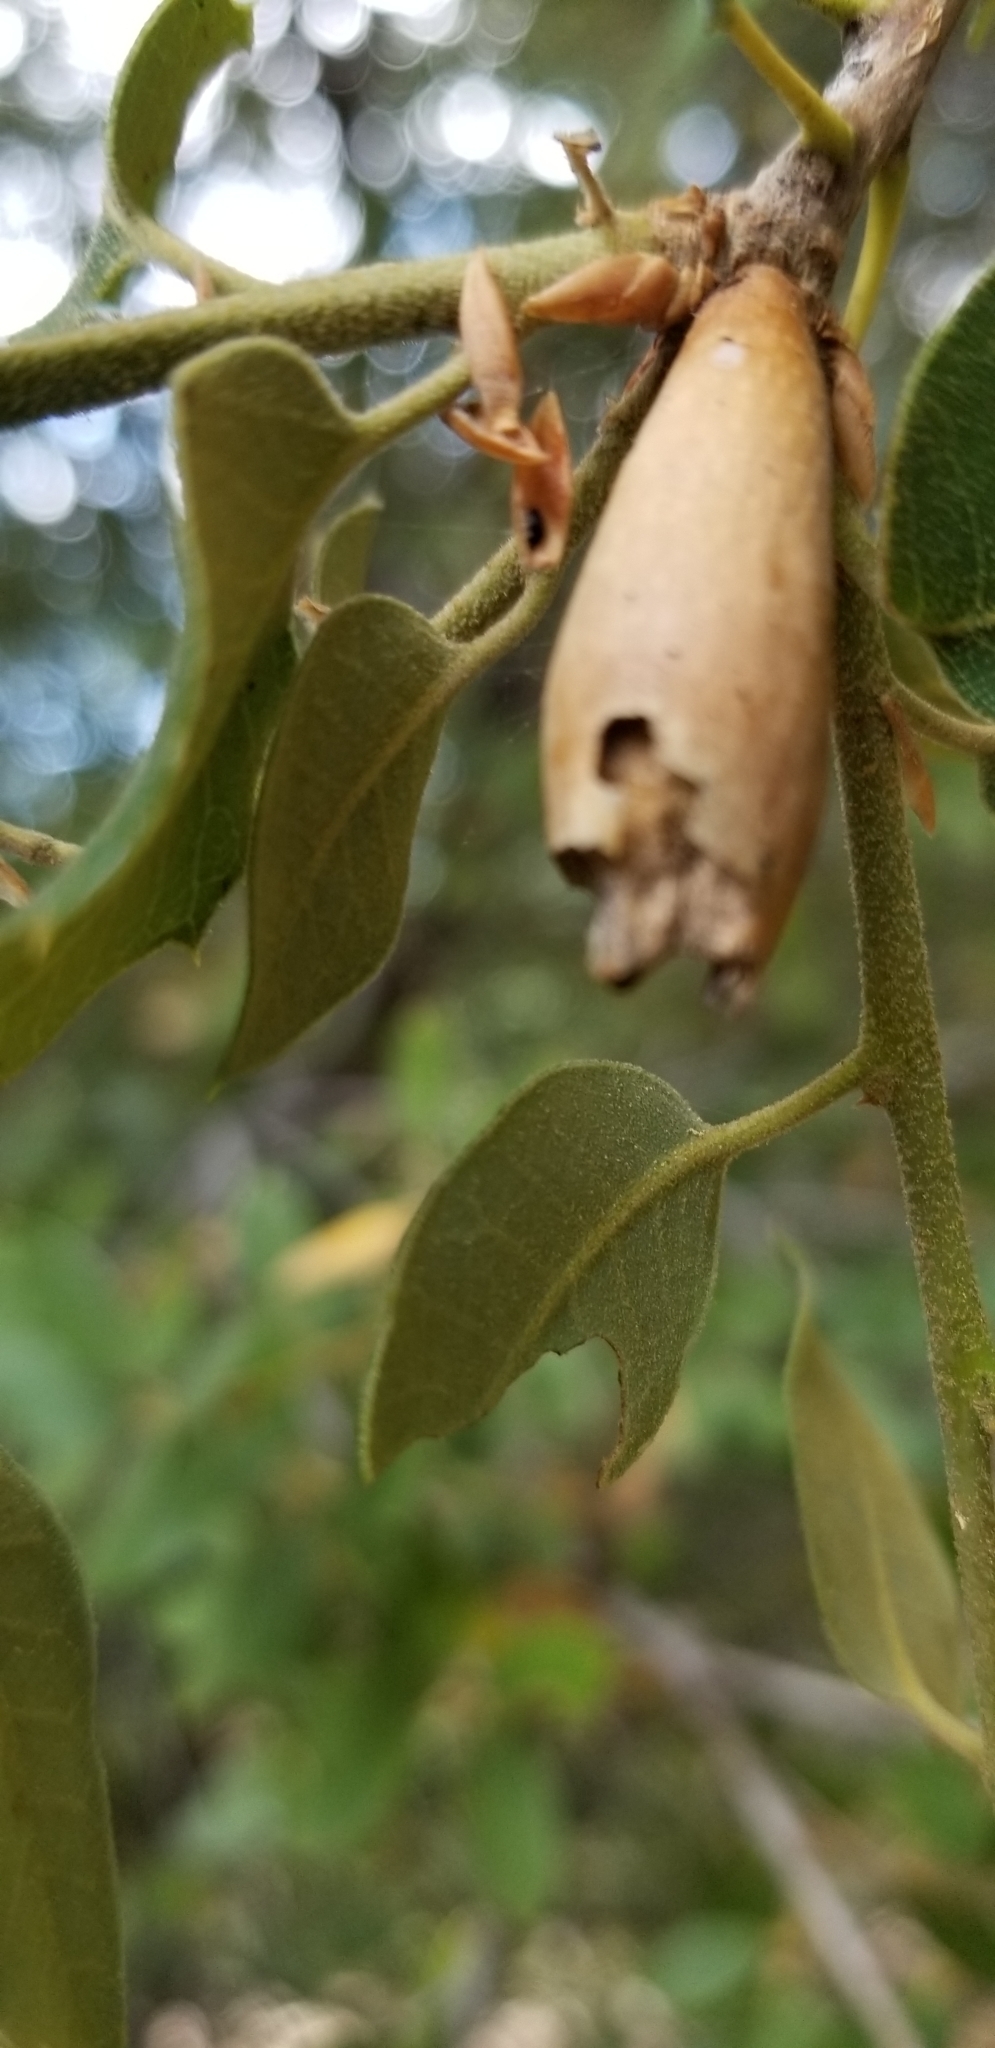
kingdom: Plantae
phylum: Tracheophyta
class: Magnoliopsida
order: Fagales
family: Fagaceae
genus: Quercus
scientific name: Quercus chrysolepis
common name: Canyon live oak
